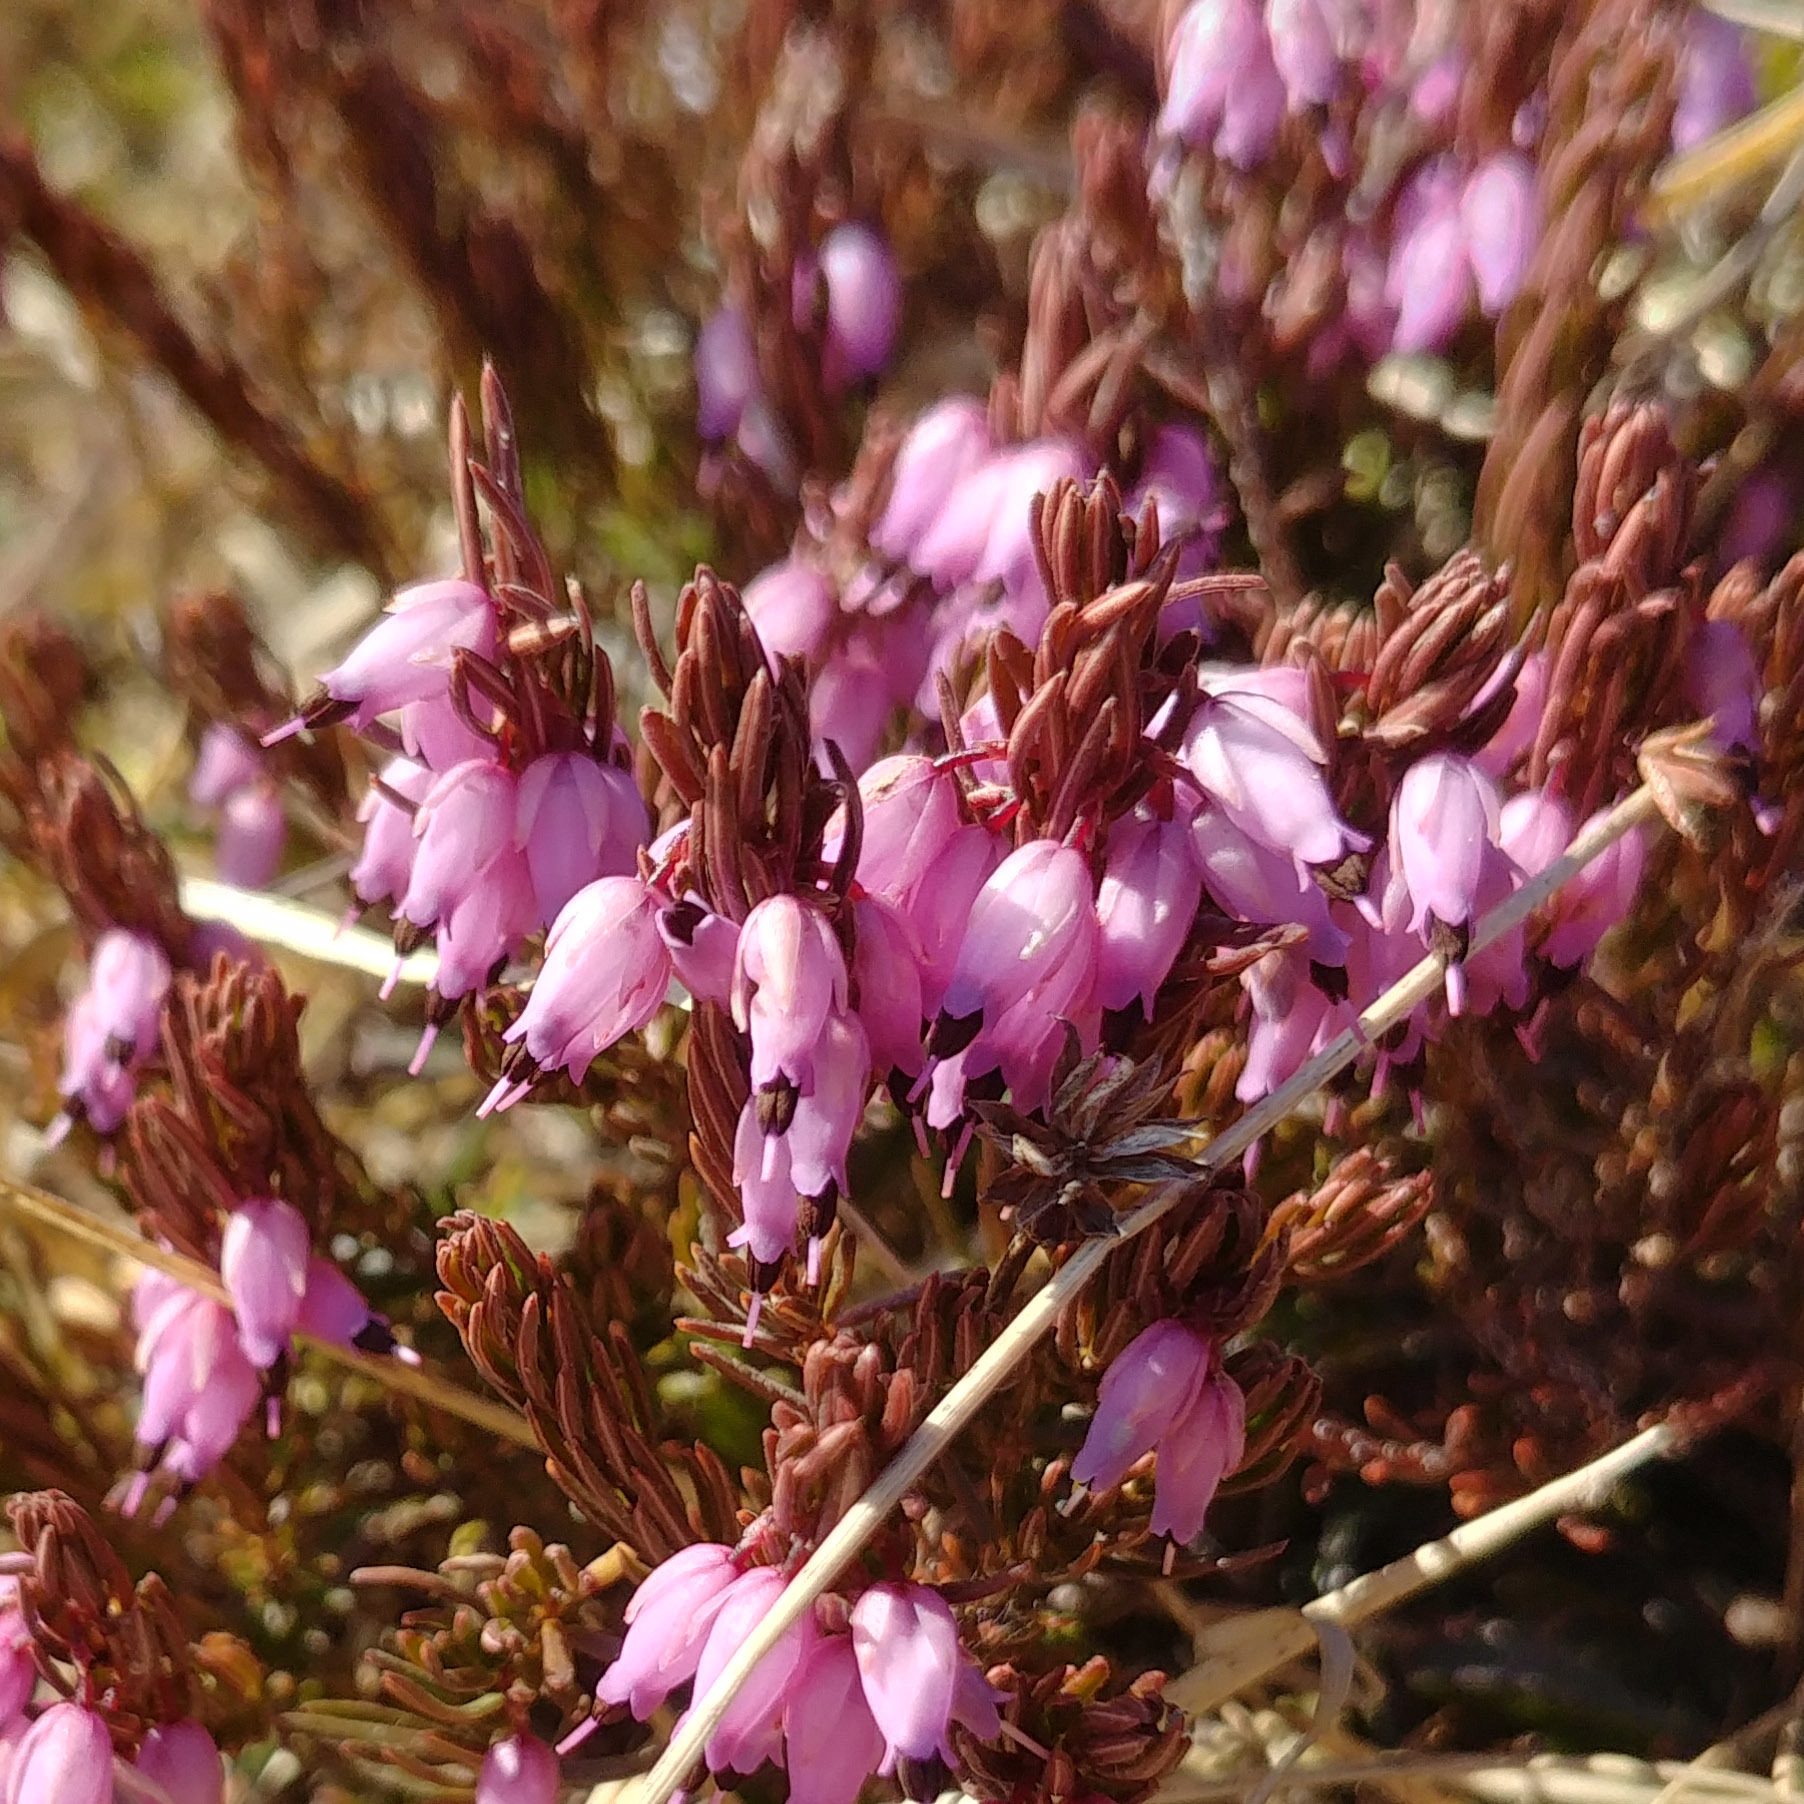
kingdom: Plantae
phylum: Tracheophyta
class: Magnoliopsida
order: Ericales
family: Ericaceae
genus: Erica
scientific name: Erica carnea
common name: Winter heath
